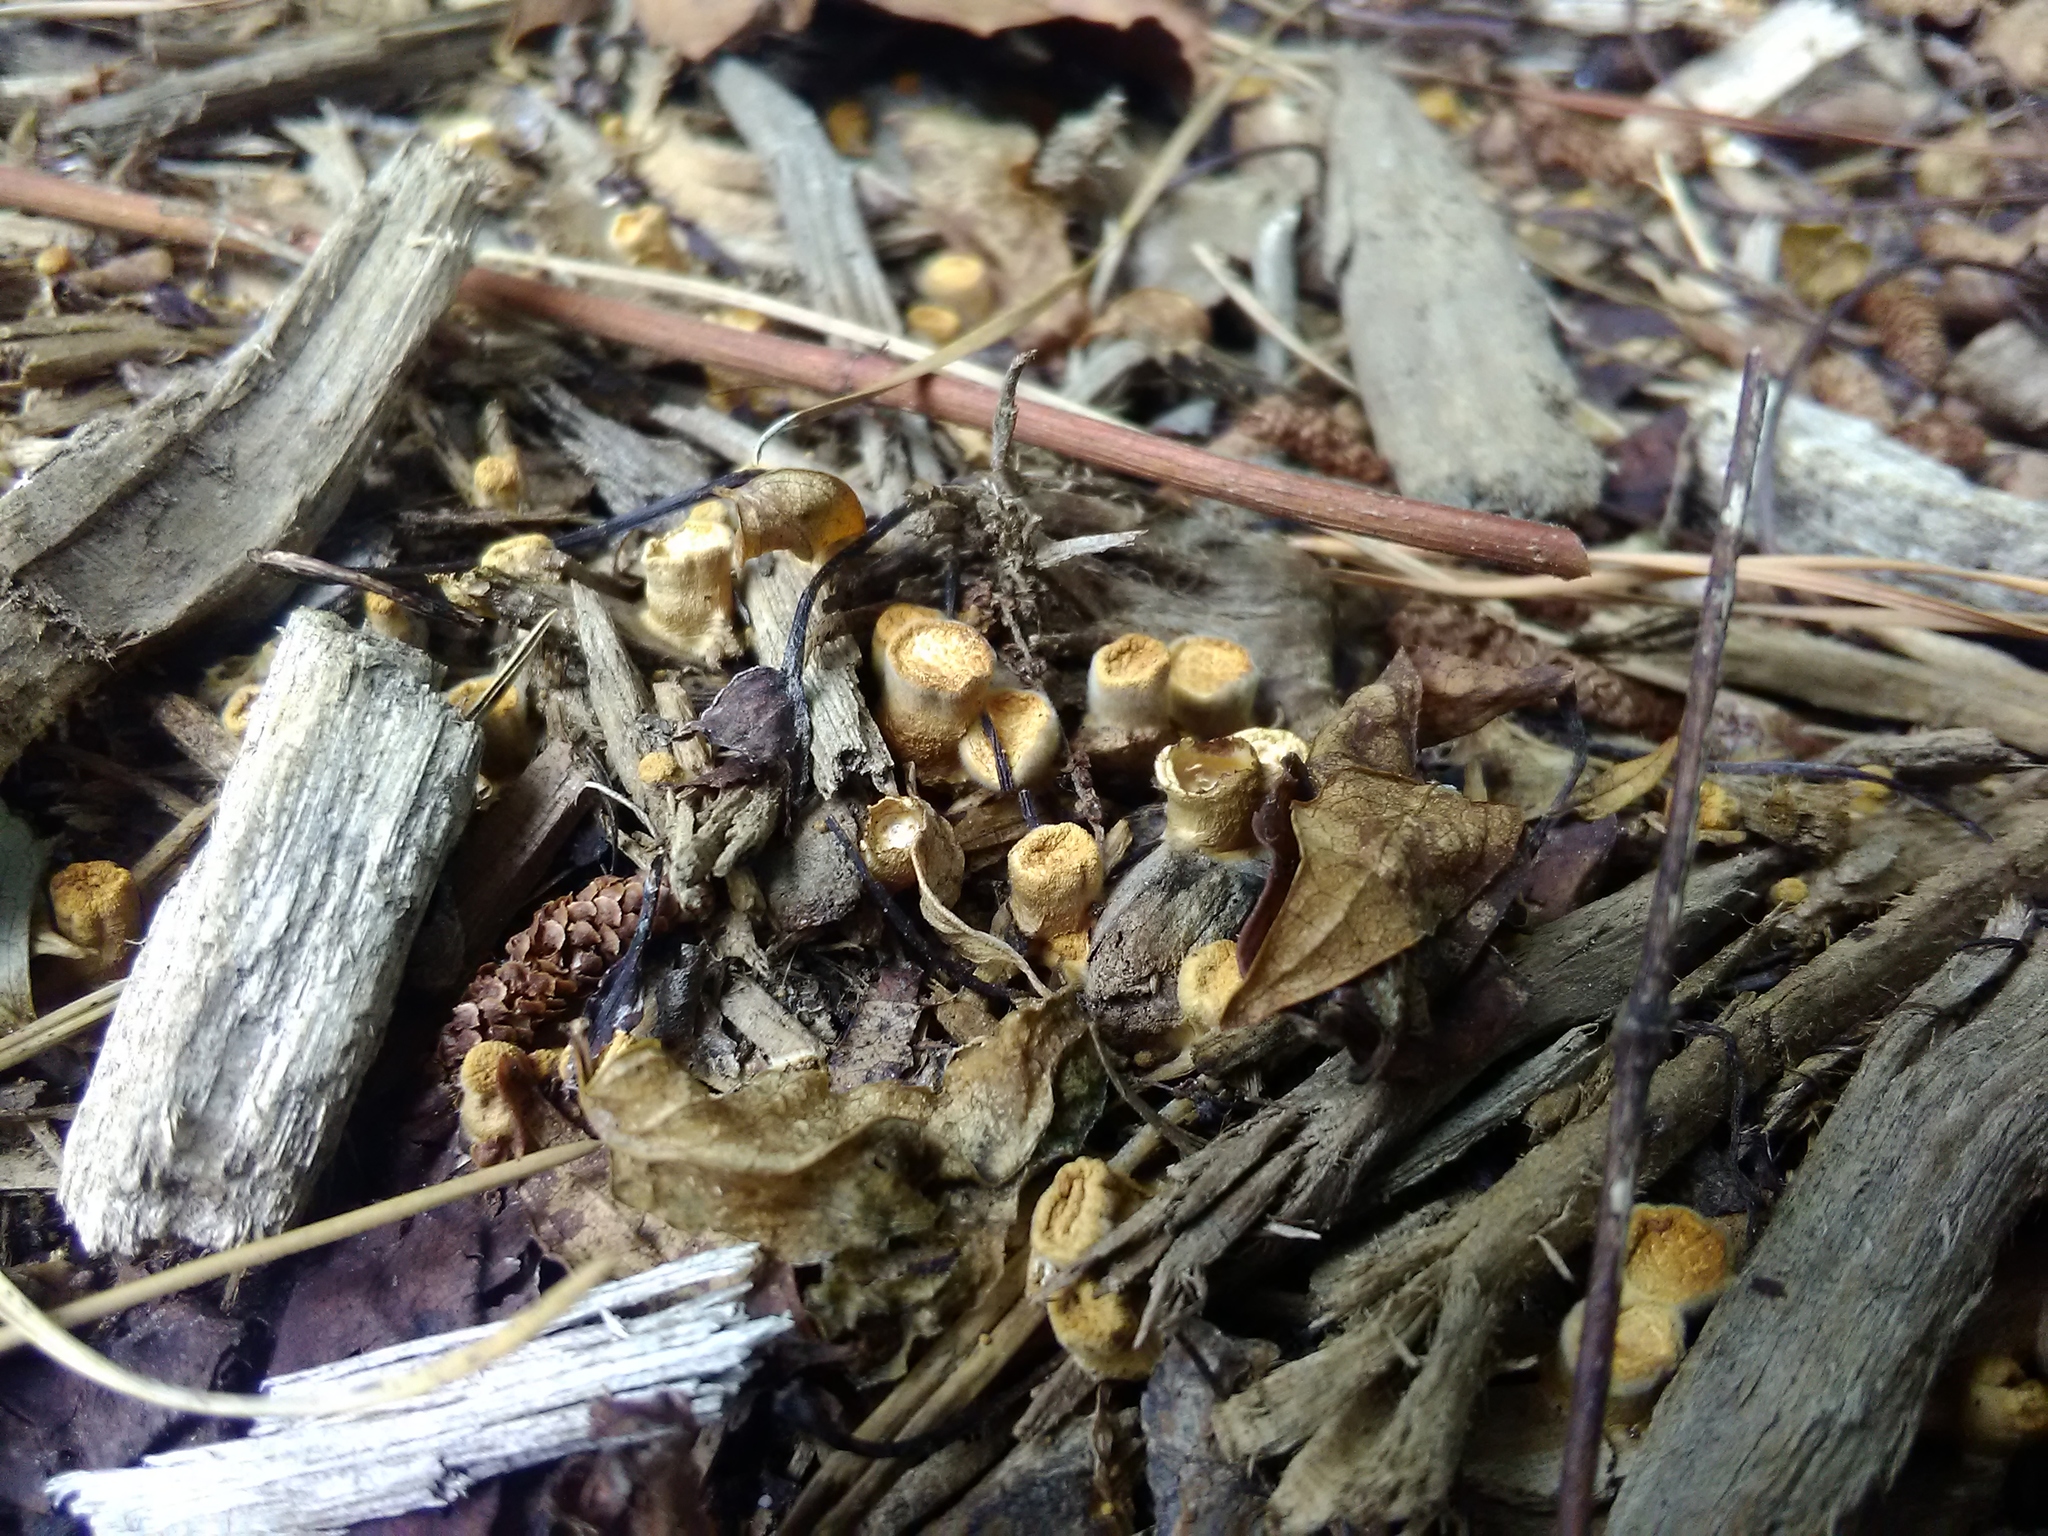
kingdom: Fungi
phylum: Basidiomycota
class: Agaricomycetes
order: Agaricales
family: Nidulariaceae
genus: Crucibulum
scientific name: Crucibulum laeve
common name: Common bird's nest
